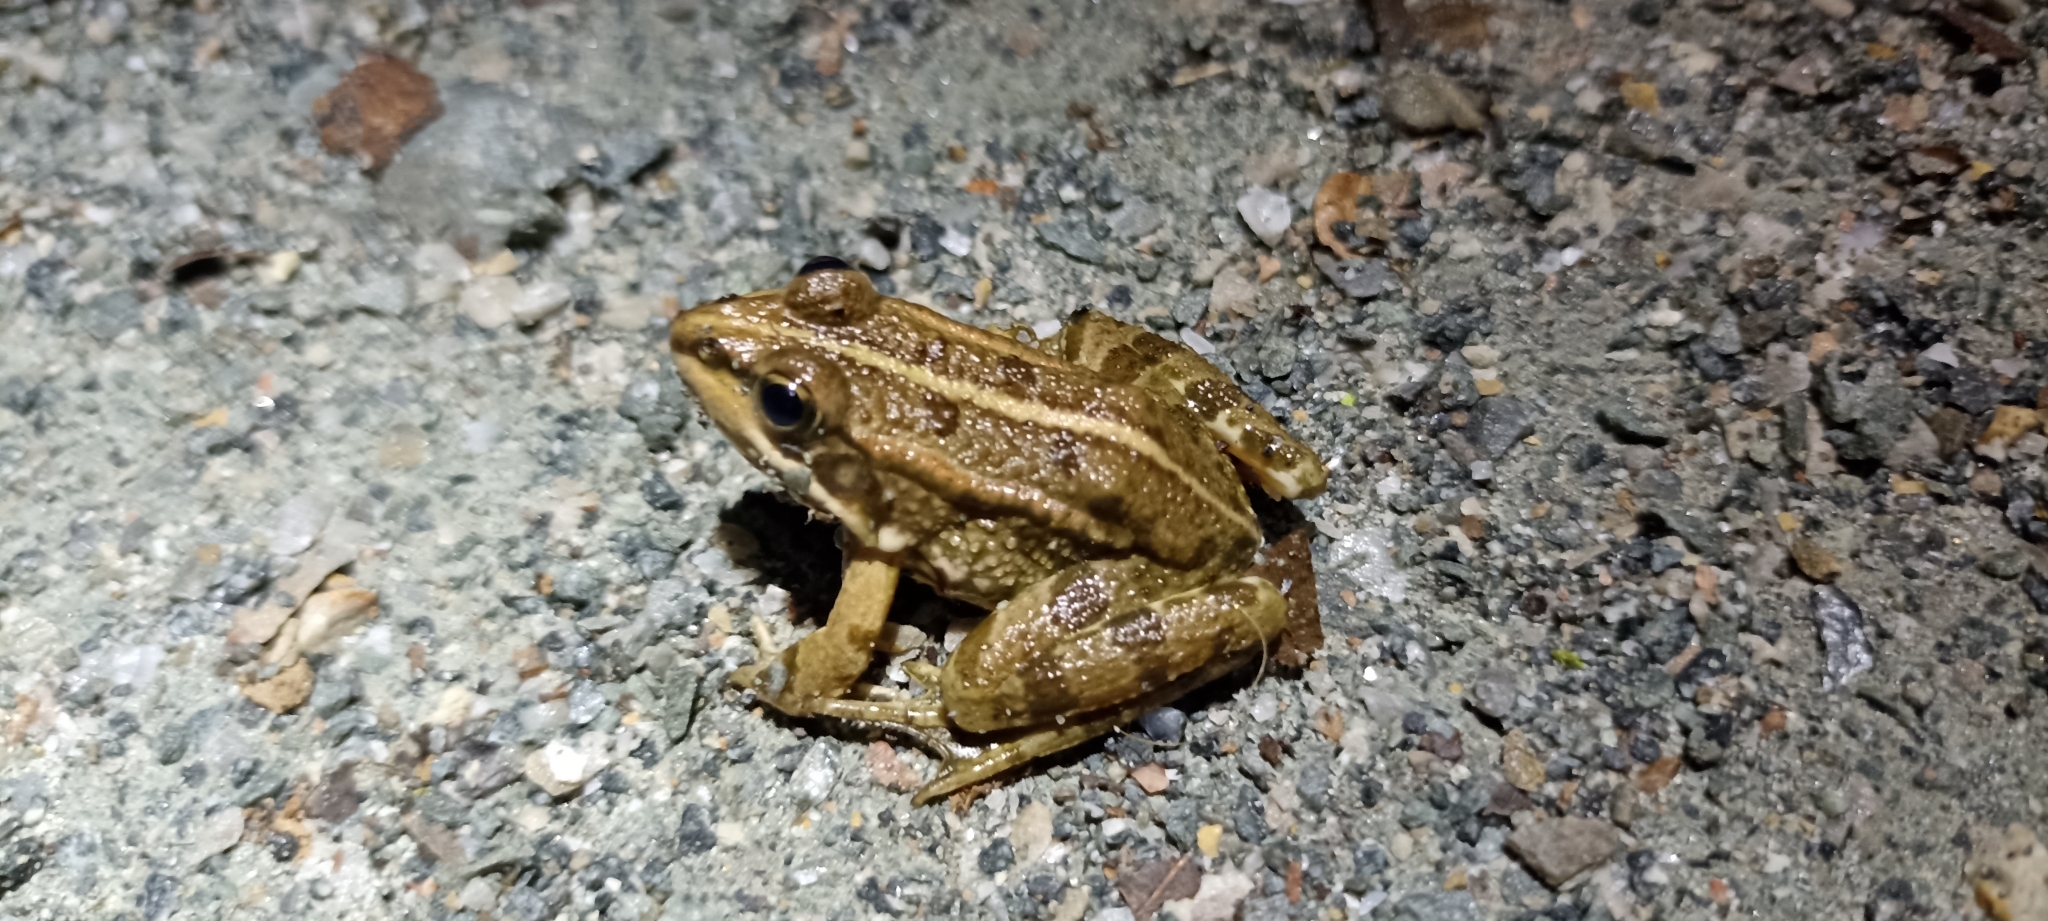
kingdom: Animalia
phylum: Chordata
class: Amphibia
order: Anura
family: Ranidae
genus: Pelophylax
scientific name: Pelophylax
